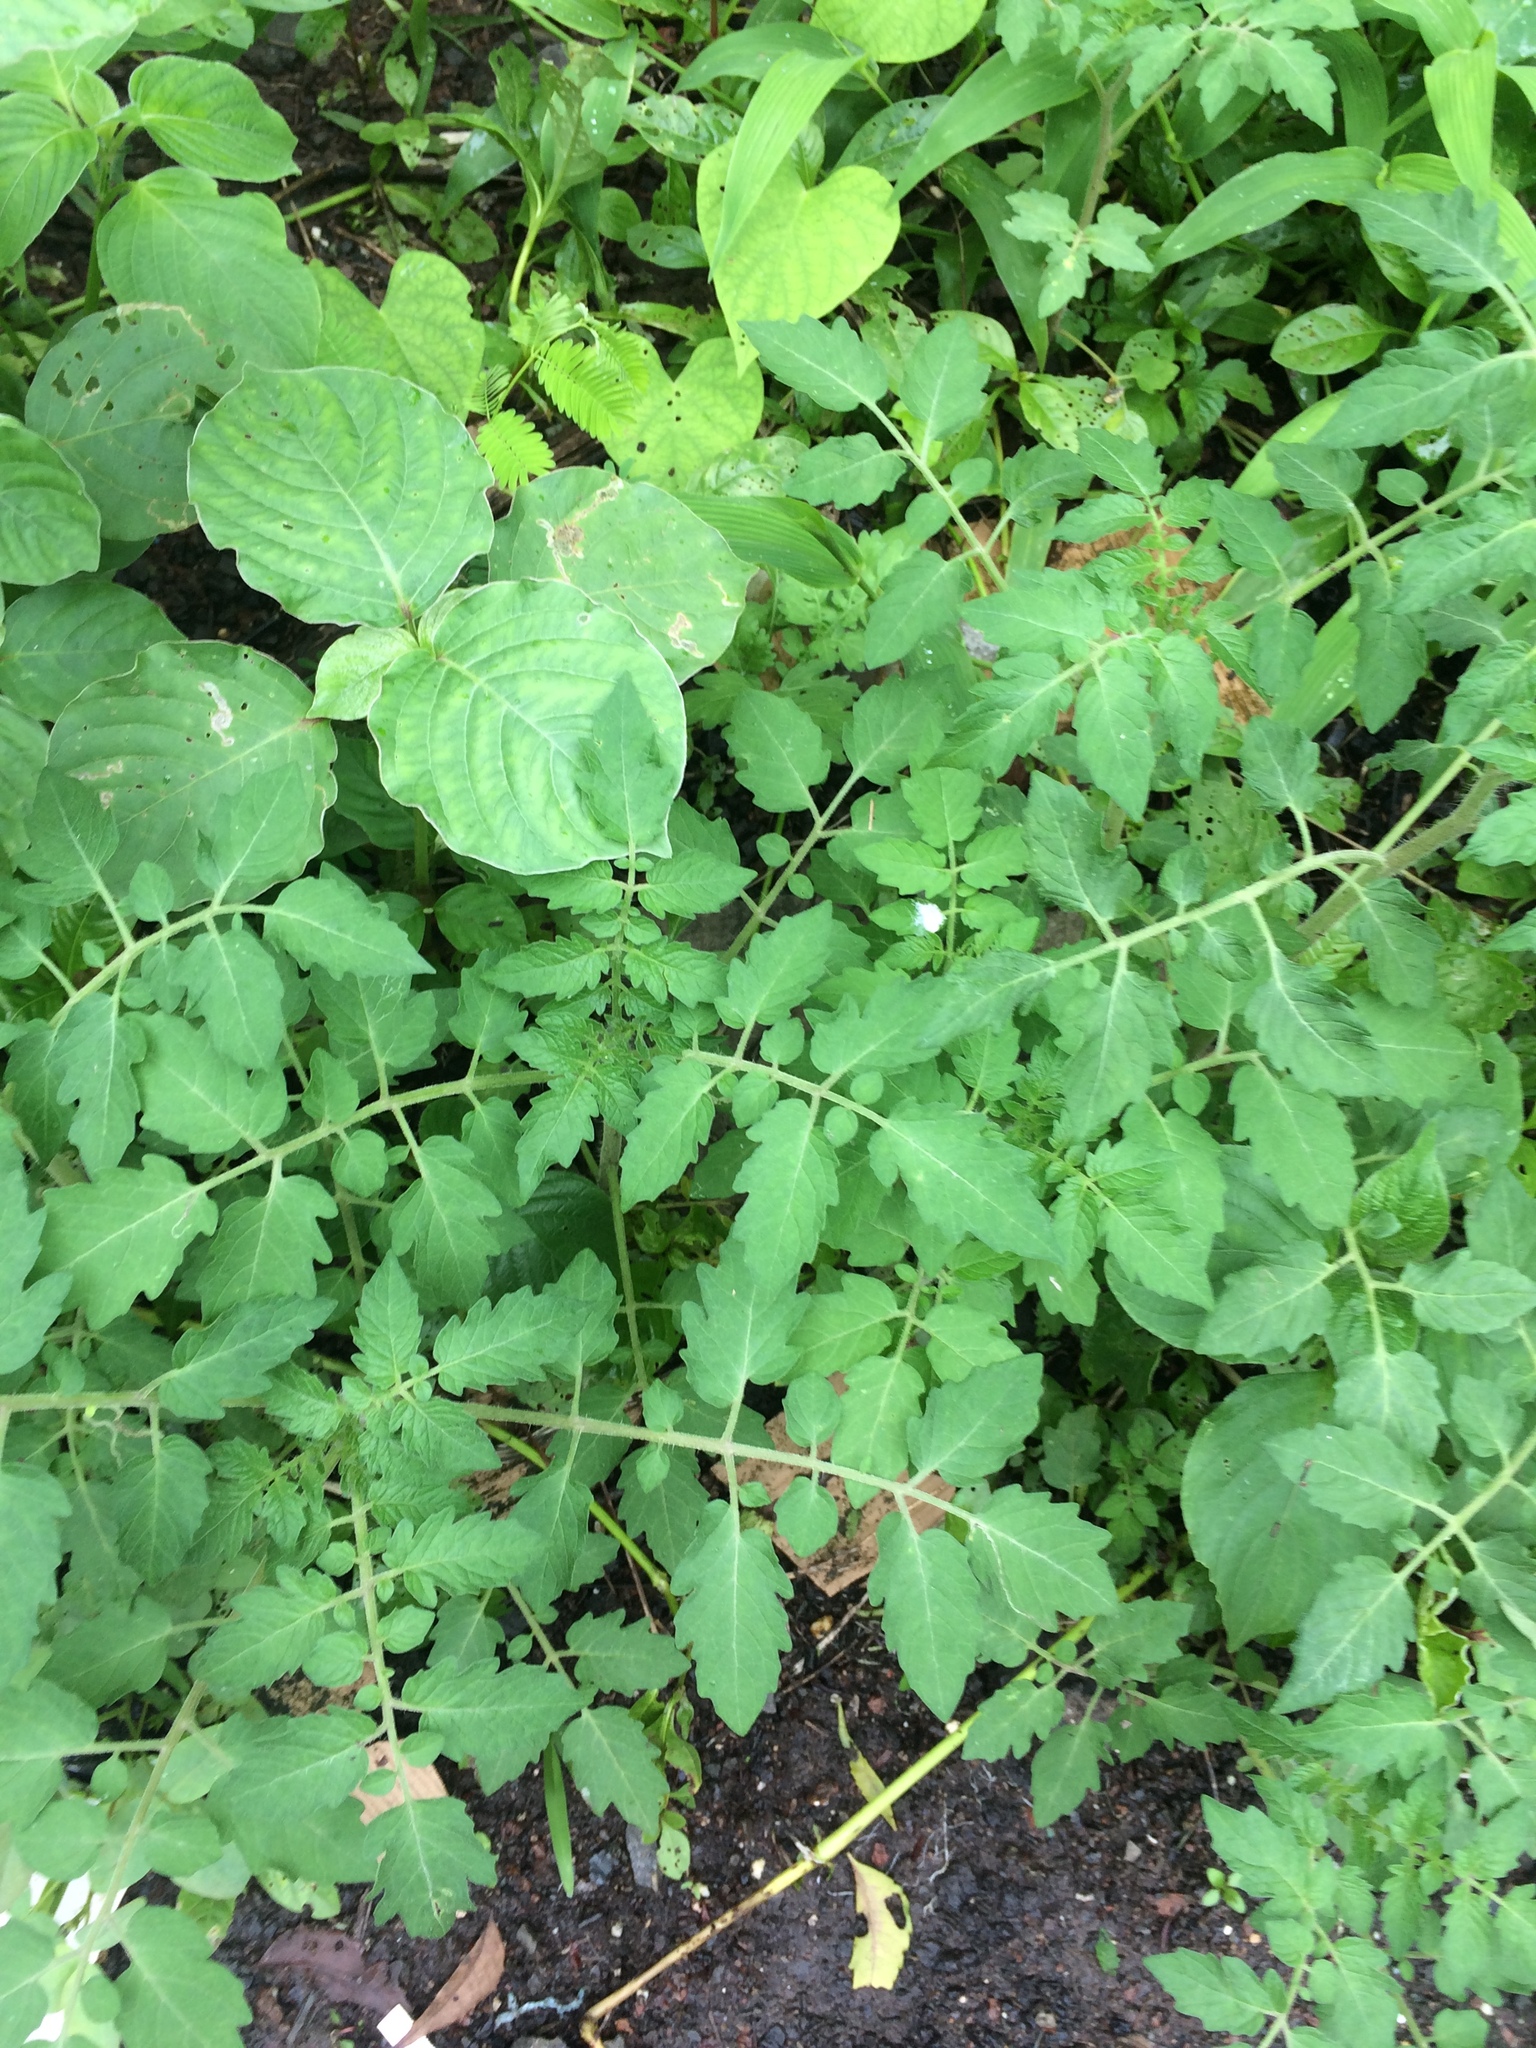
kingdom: Plantae
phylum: Tracheophyta
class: Magnoliopsida
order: Solanales
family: Solanaceae
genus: Solanum
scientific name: Solanum lycopersicum
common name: Garden tomato
